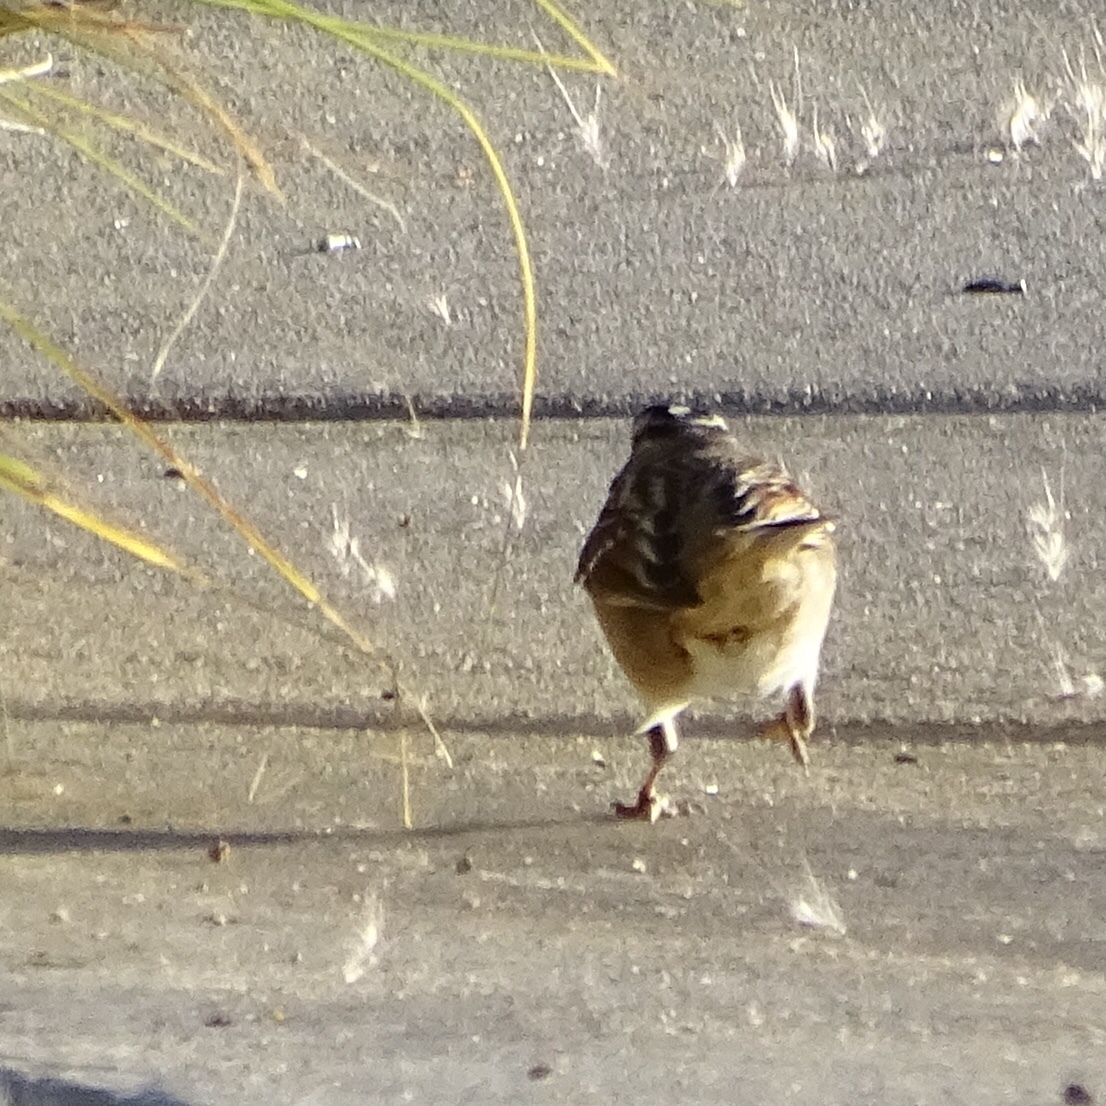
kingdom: Animalia
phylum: Chordata
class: Aves
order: Passeriformes
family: Passerellidae
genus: Zonotrichia
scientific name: Zonotrichia leucophrys
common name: White-crowned sparrow
